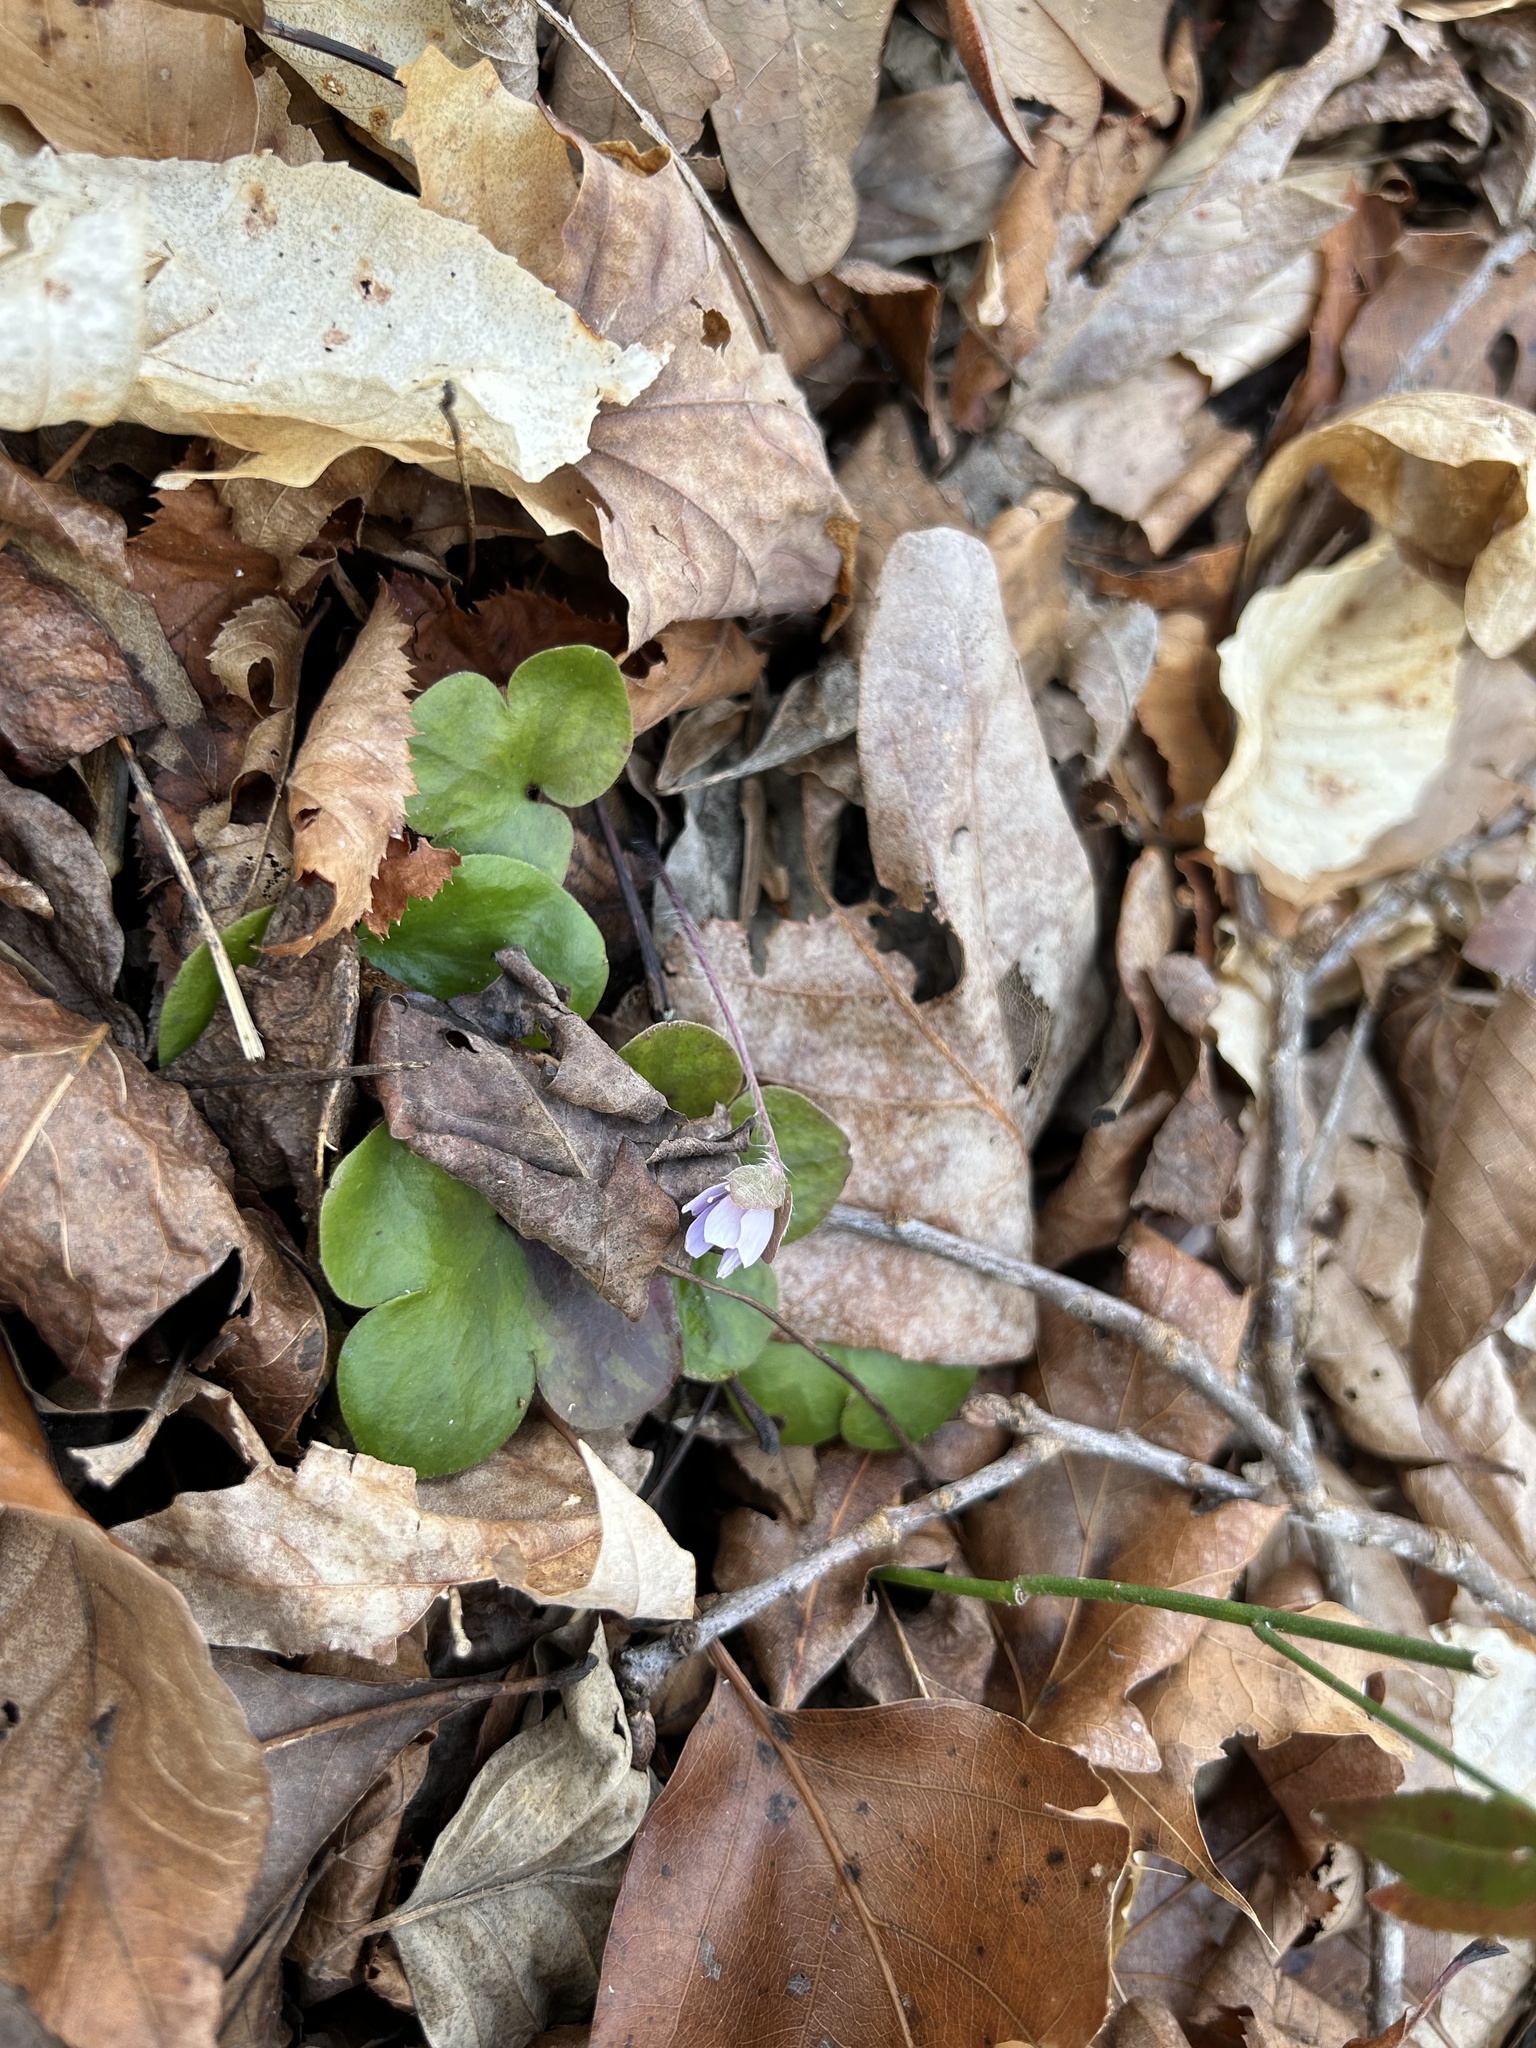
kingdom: Plantae
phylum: Tracheophyta
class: Magnoliopsida
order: Ranunculales
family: Ranunculaceae
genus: Hepatica
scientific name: Hepatica americana
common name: American hepatica
